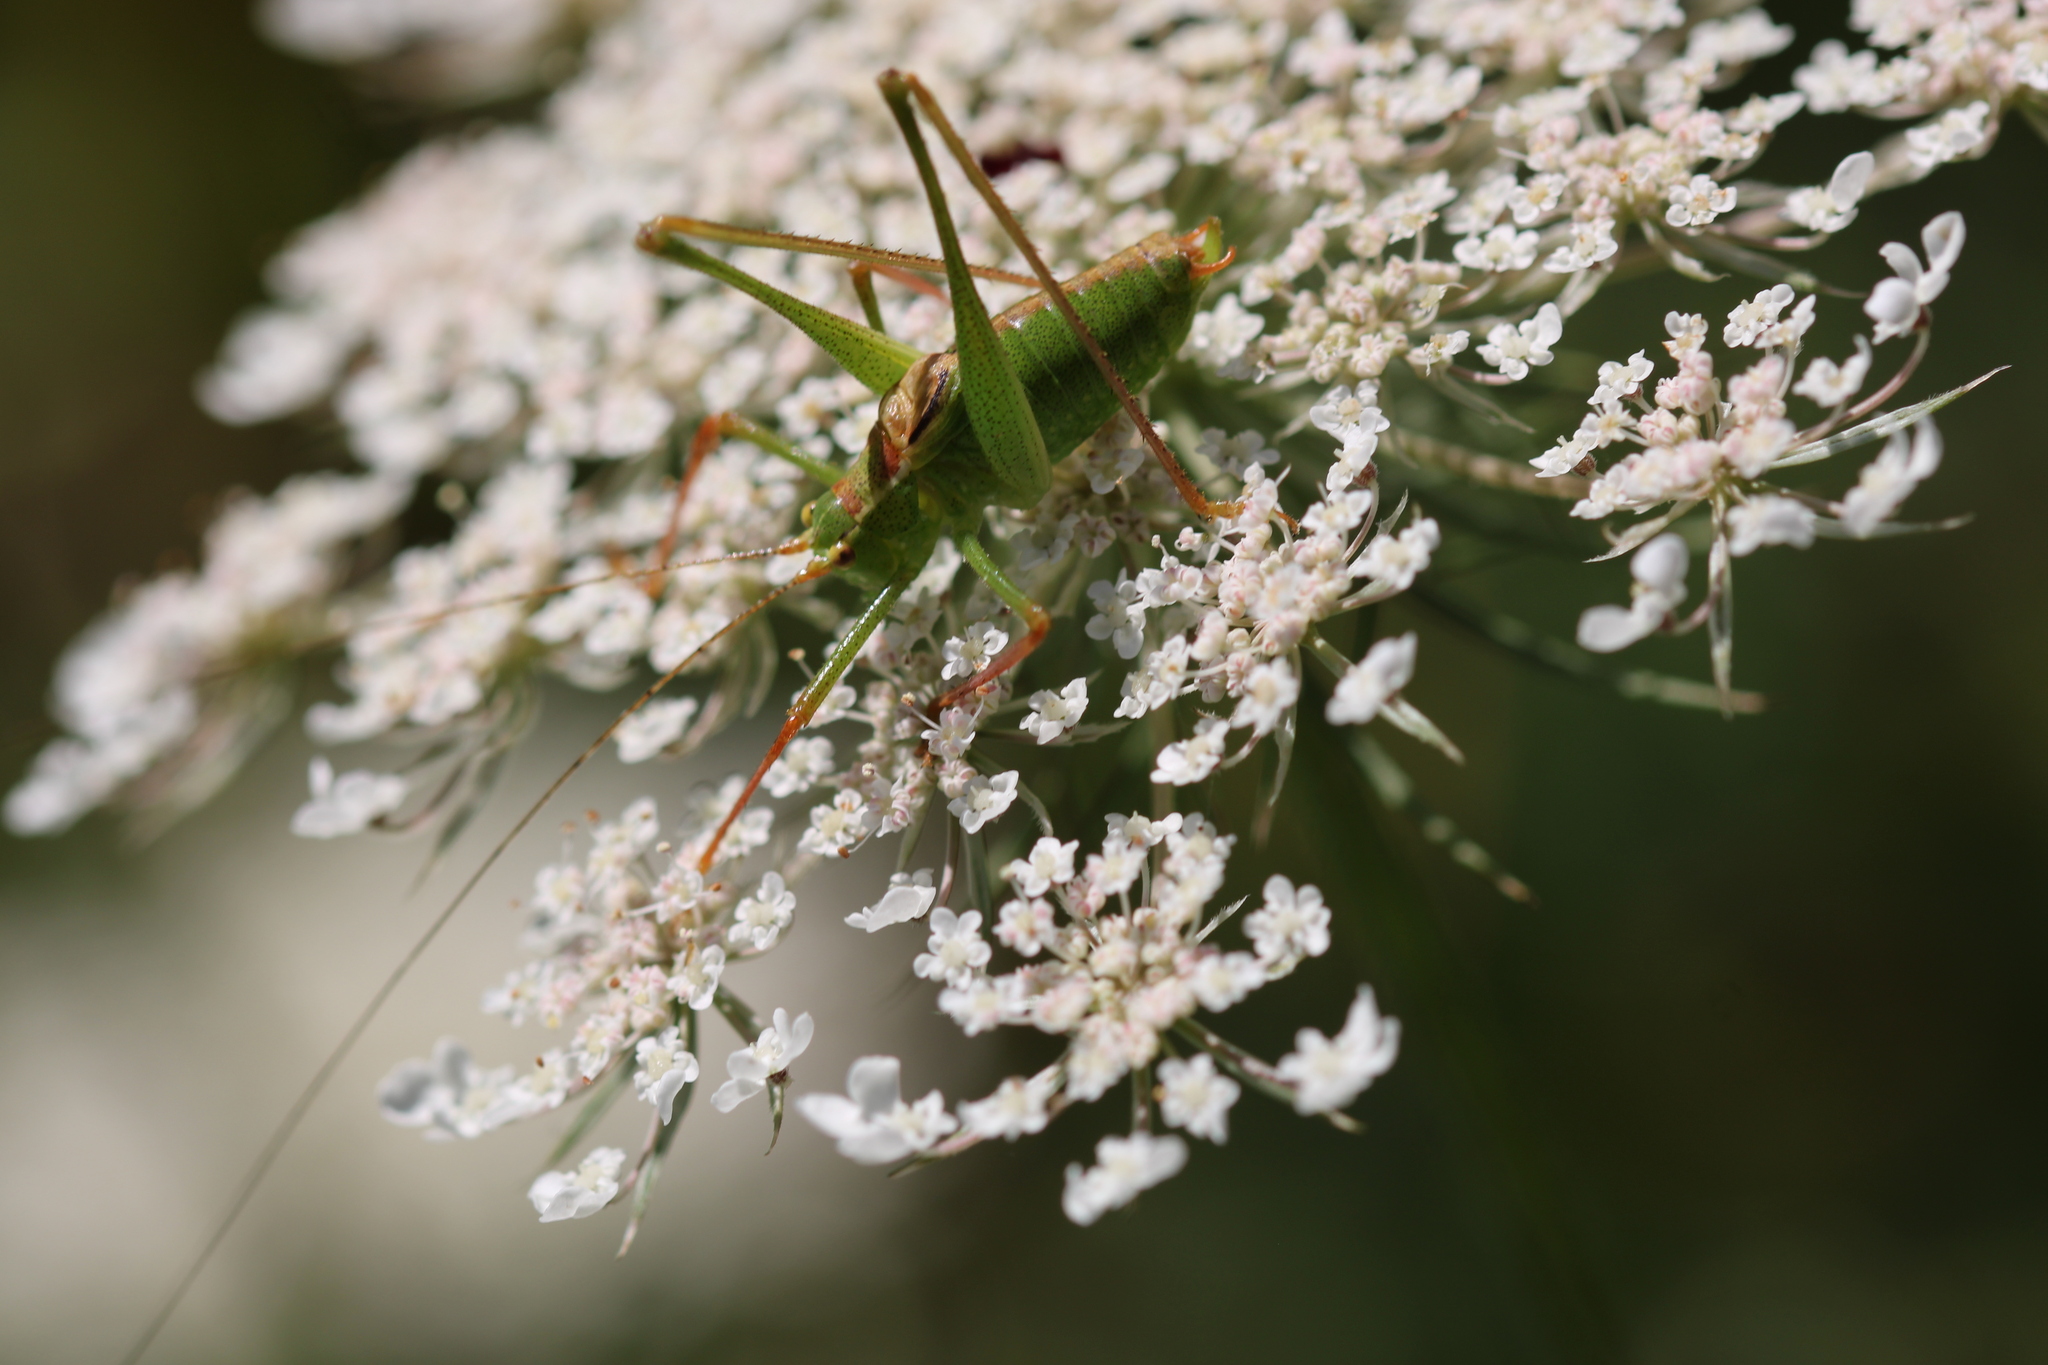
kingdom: Animalia
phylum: Arthropoda
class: Insecta
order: Orthoptera
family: Tettigoniidae
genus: Leptophyes
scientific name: Leptophyes punctatissima
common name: Speckled bush-cricket
